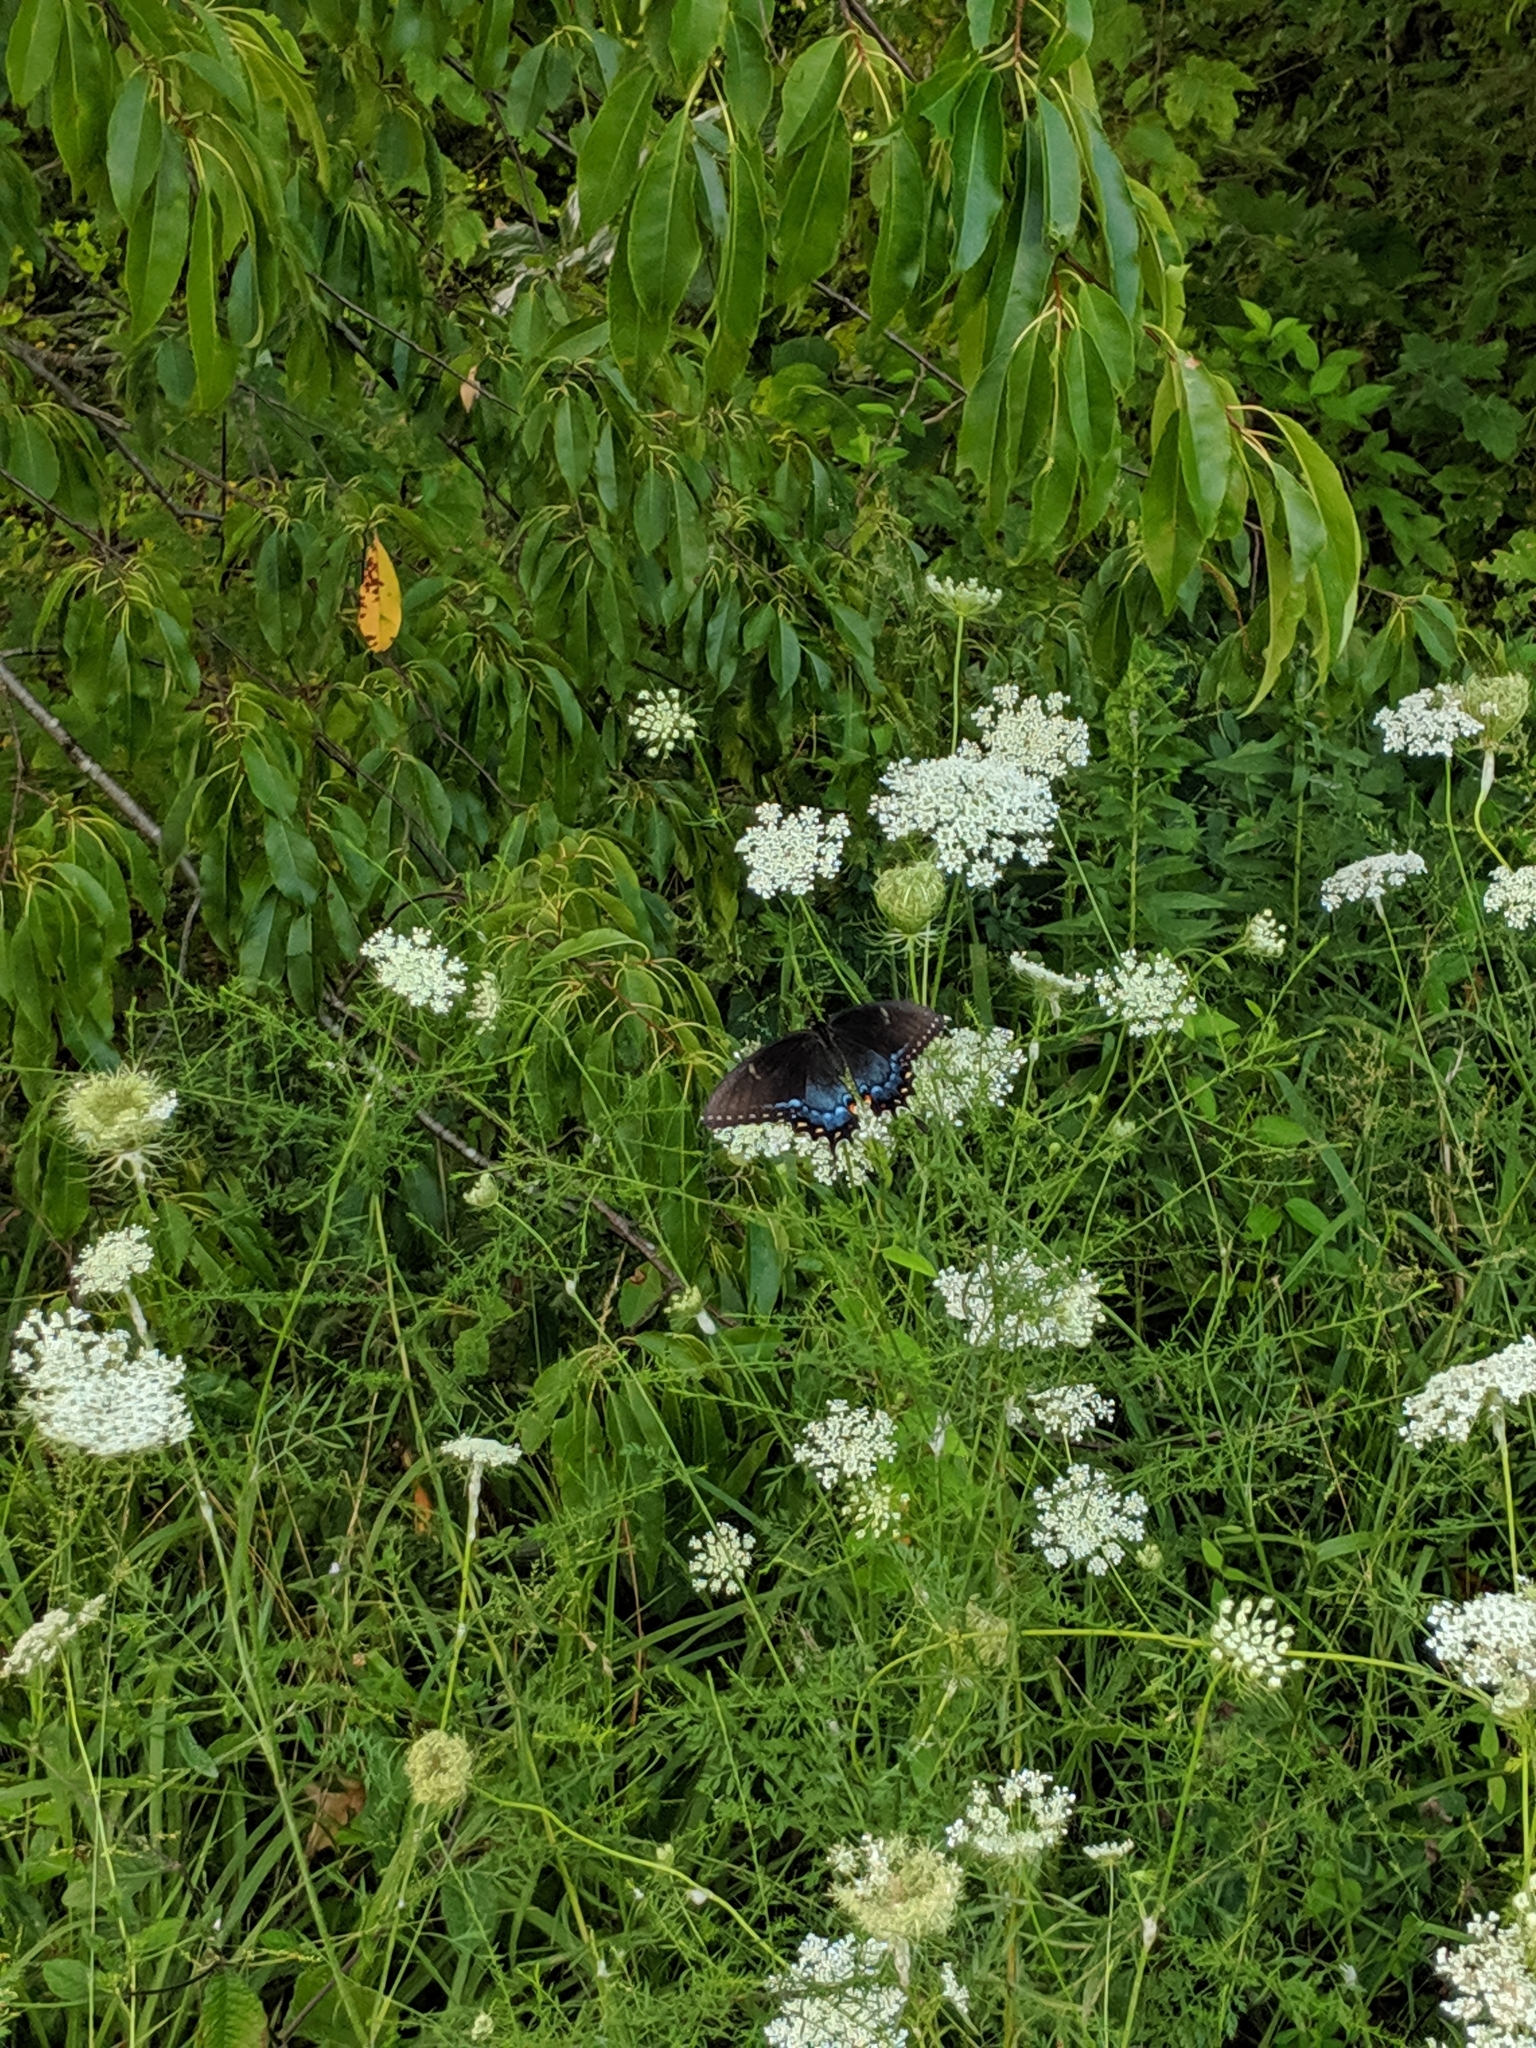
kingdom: Animalia
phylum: Arthropoda
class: Insecta
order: Lepidoptera
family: Papilionidae
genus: Papilio
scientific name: Papilio glaucus
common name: Tiger swallowtail
